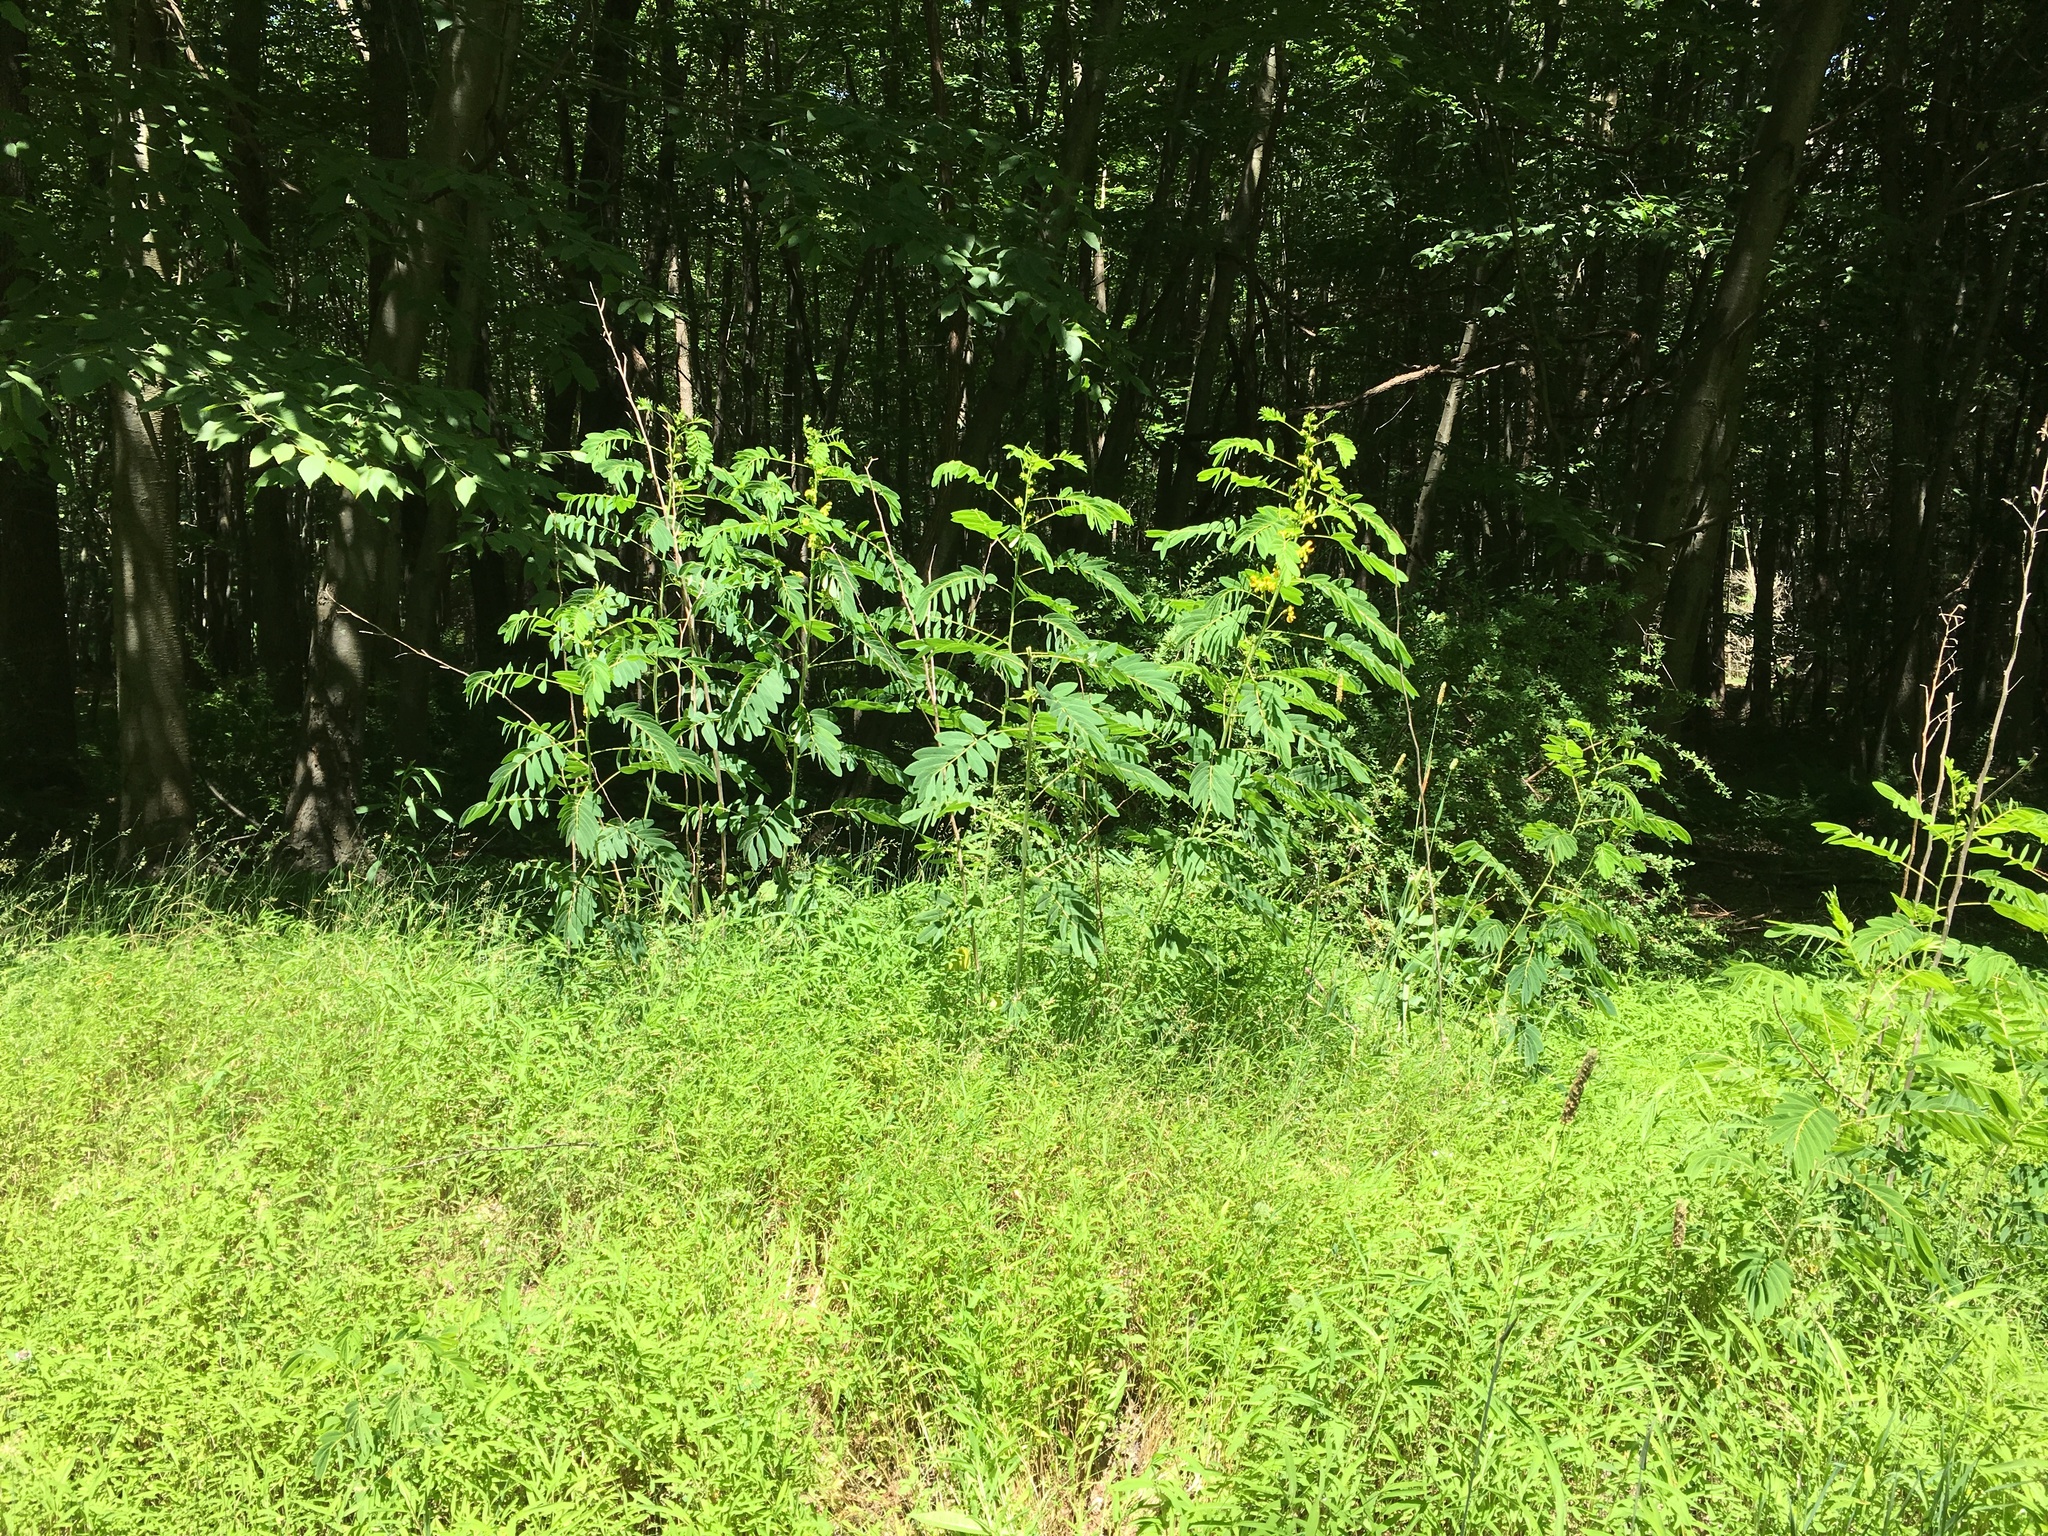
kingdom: Plantae
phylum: Tracheophyta
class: Magnoliopsida
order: Fabales
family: Fabaceae
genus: Senna
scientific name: Senna hebecarpa
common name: Wild senna
